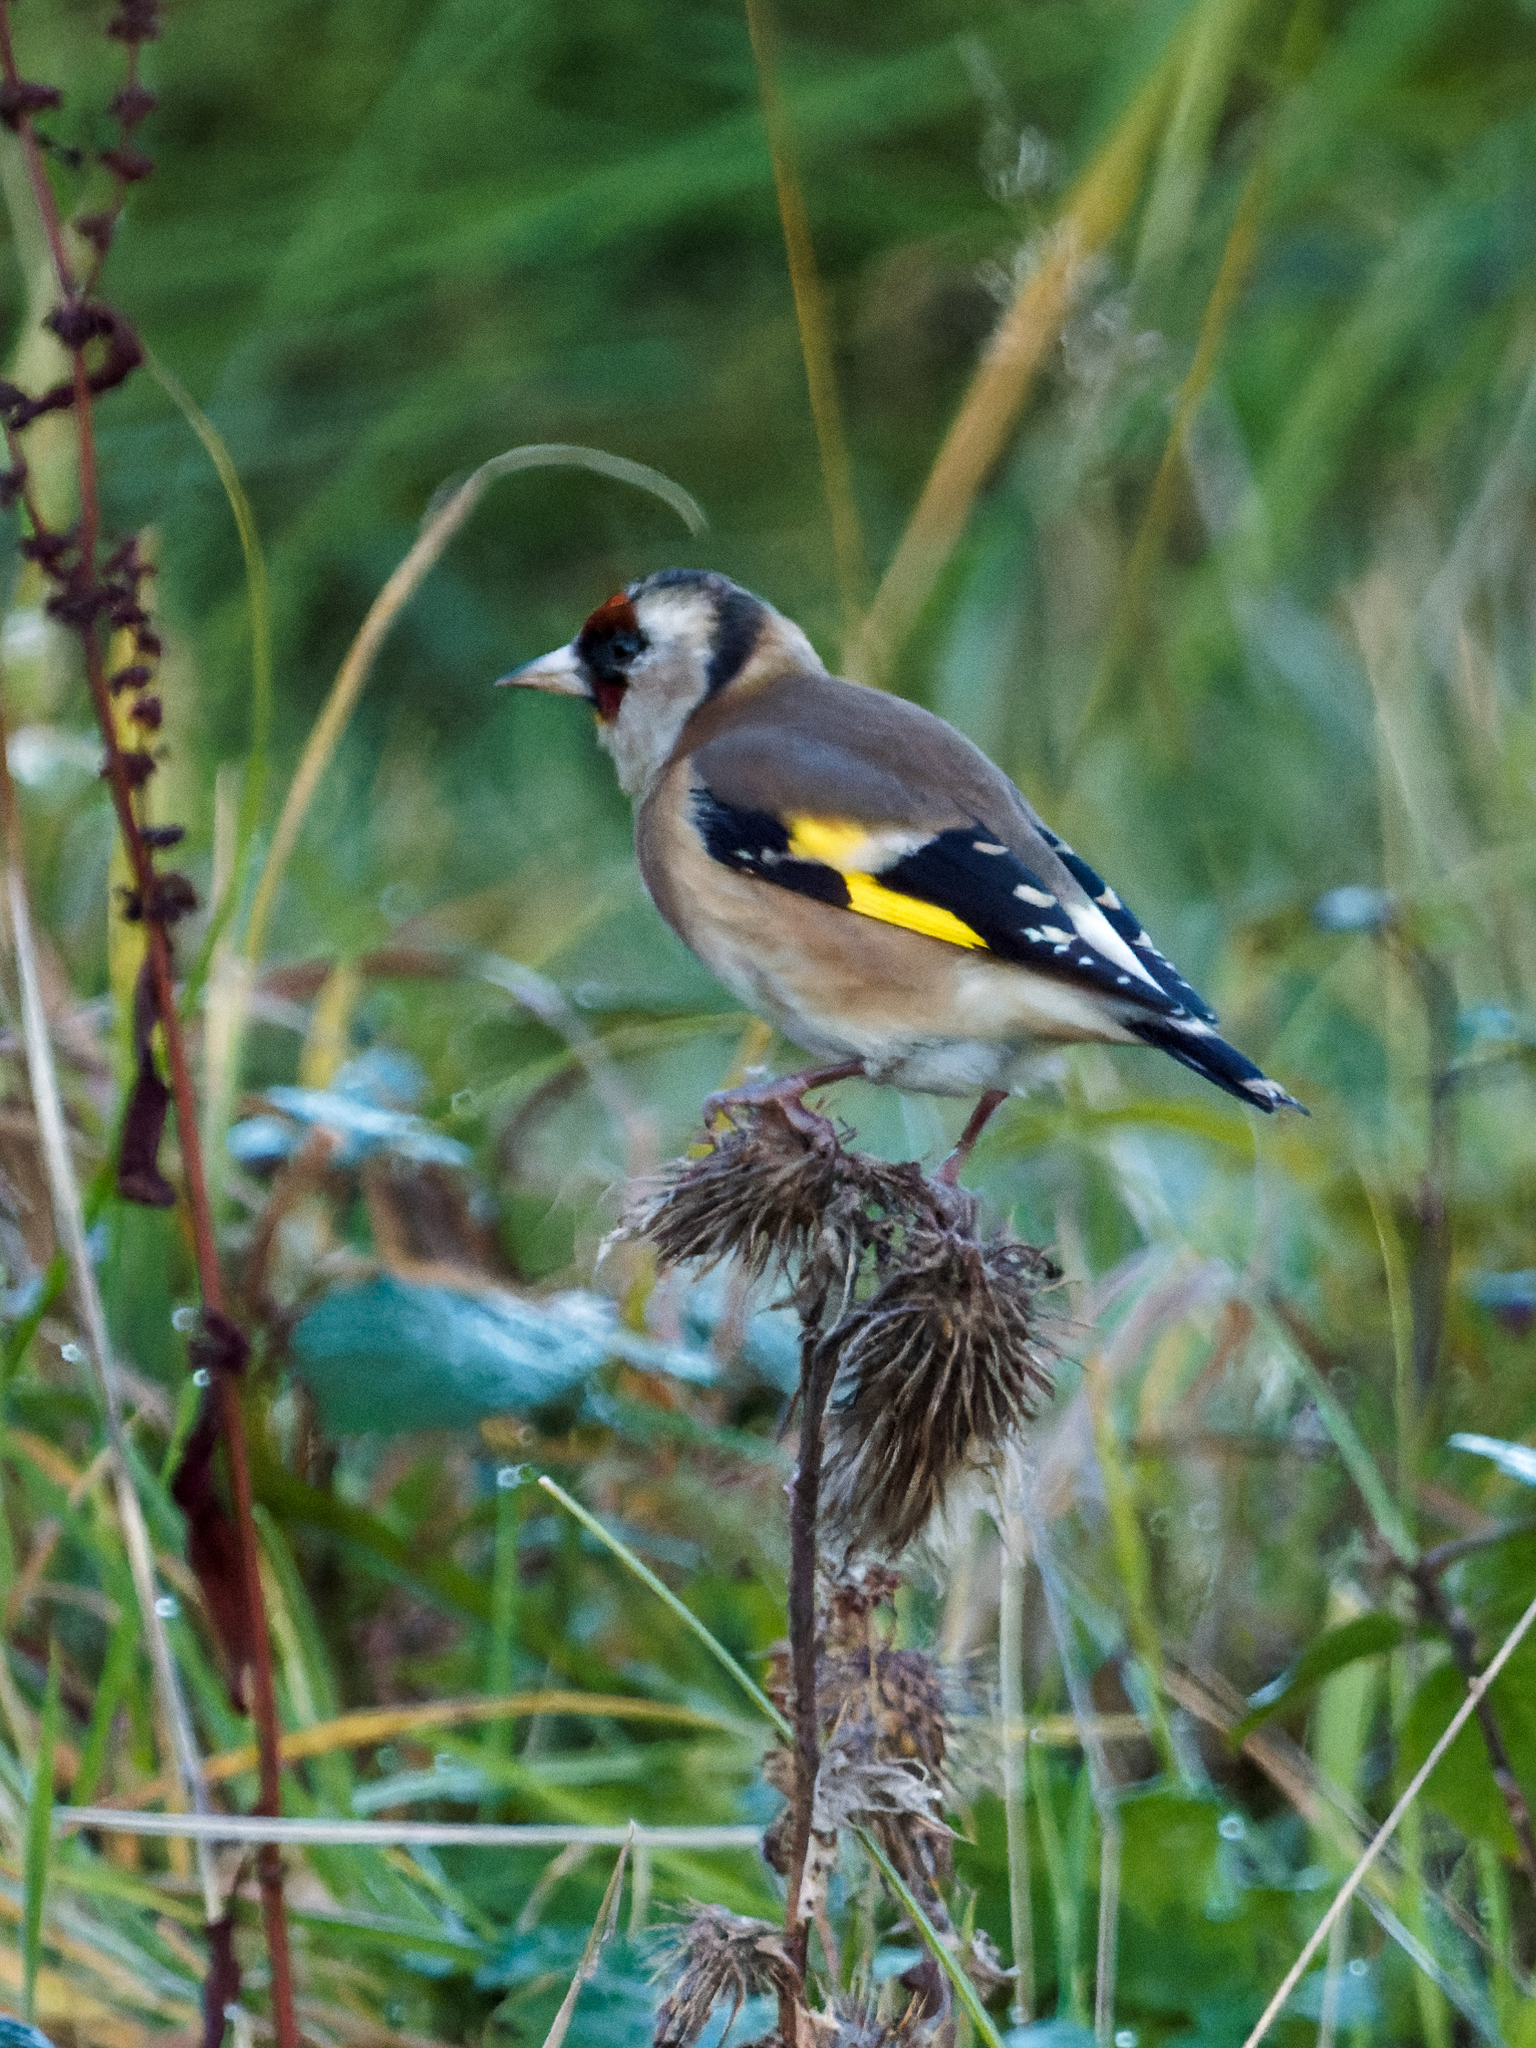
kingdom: Animalia
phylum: Chordata
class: Aves
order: Passeriformes
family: Fringillidae
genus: Carduelis
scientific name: Carduelis carduelis
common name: European goldfinch
